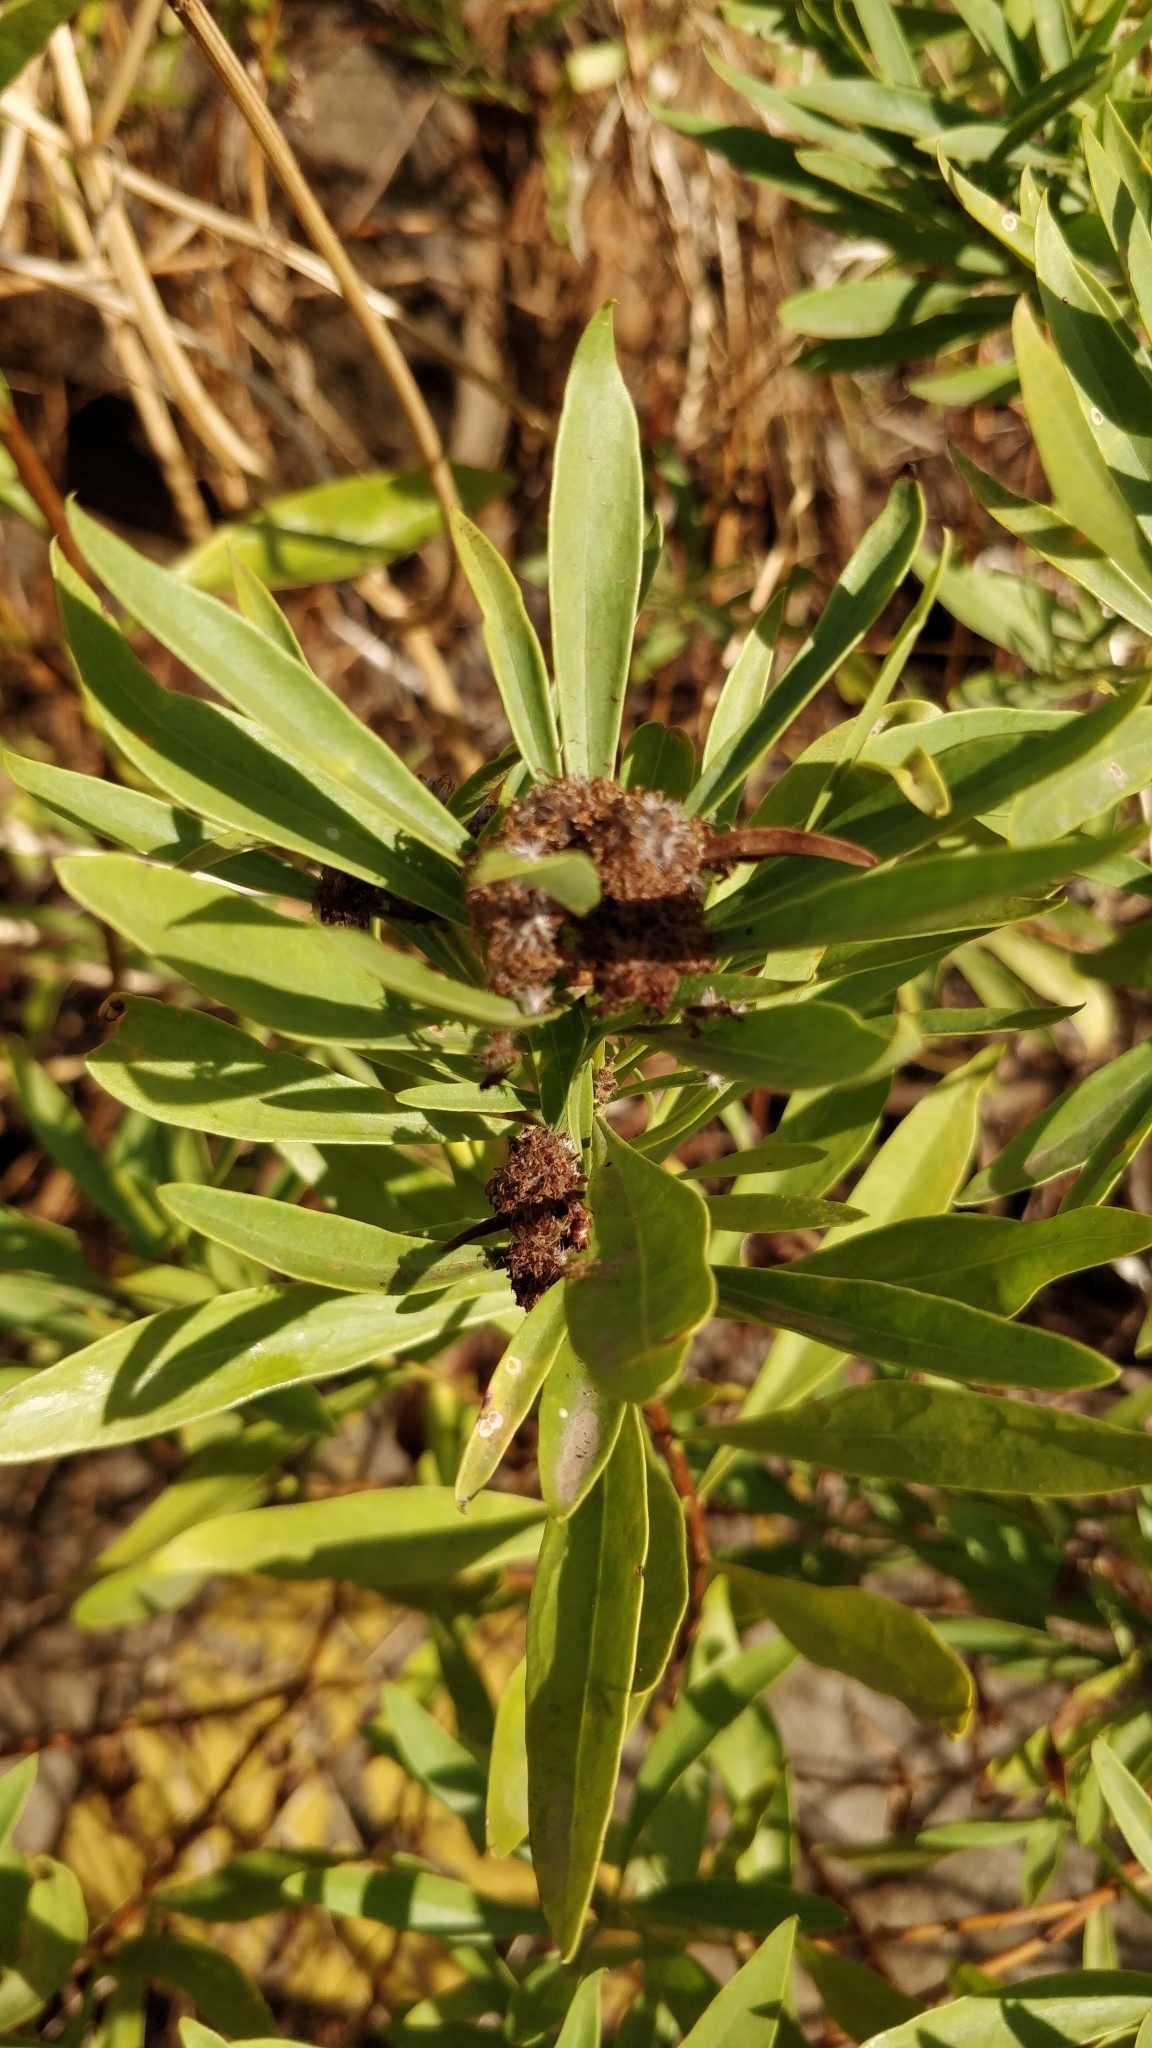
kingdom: Plantae
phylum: Tracheophyta
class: Magnoliopsida
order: Lamiales
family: Plantaginaceae
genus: Globularia
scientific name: Globularia salicina
